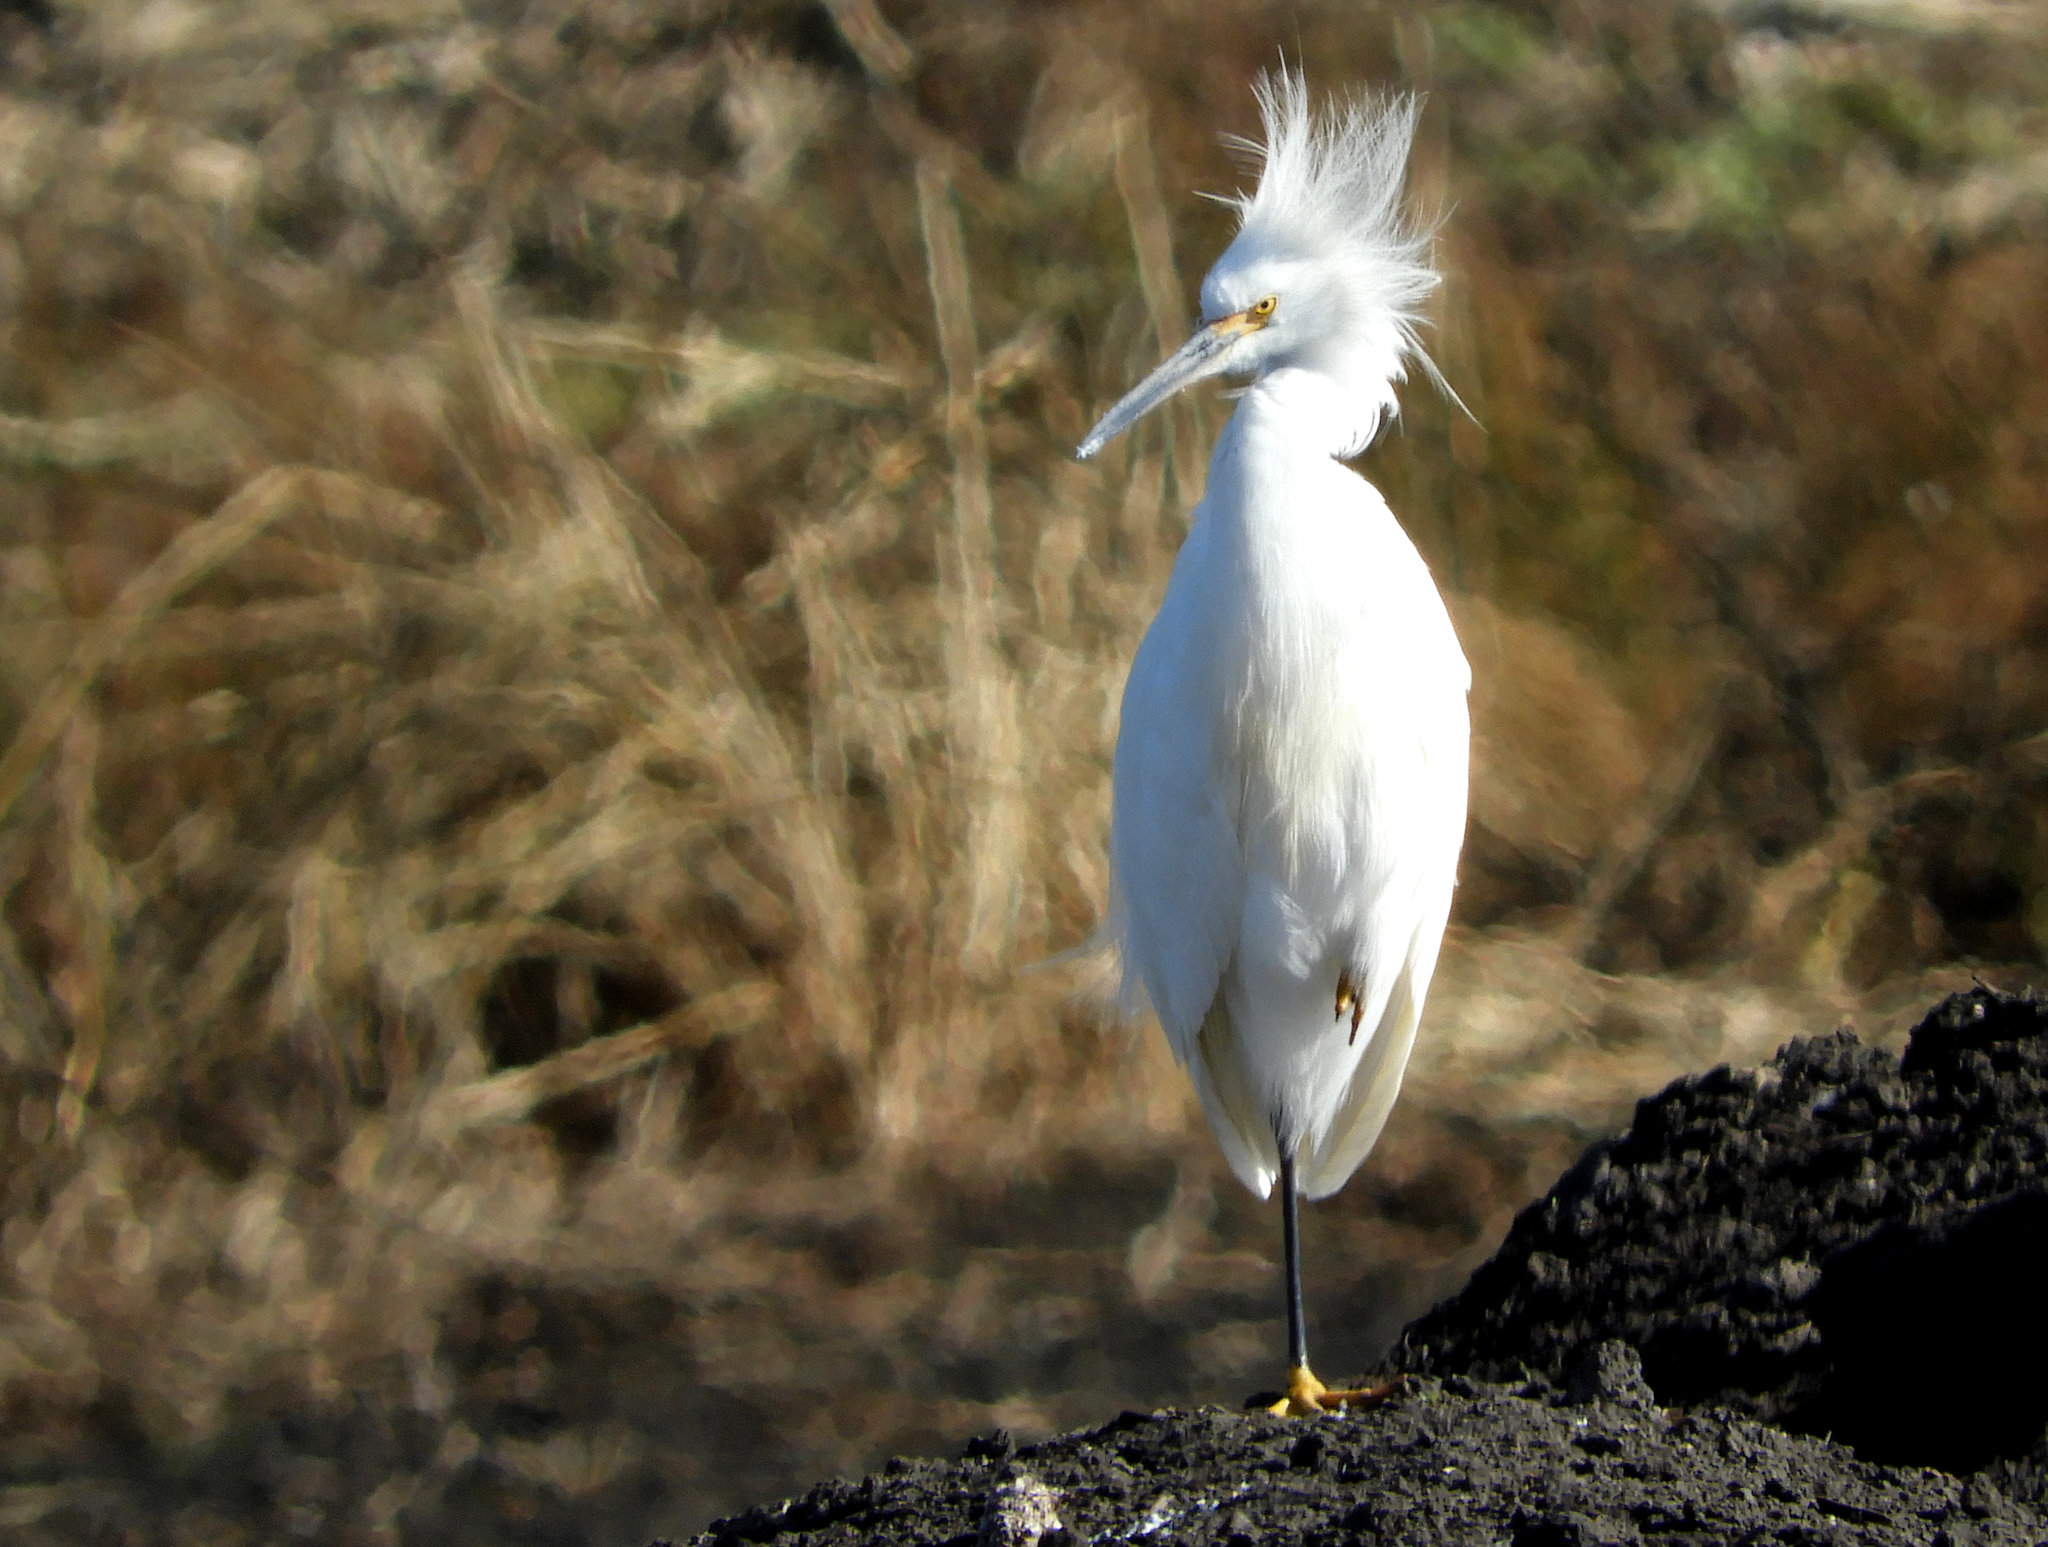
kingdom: Animalia
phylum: Chordata
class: Aves
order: Pelecaniformes
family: Ardeidae
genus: Egretta
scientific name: Egretta thula
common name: Snowy egret
